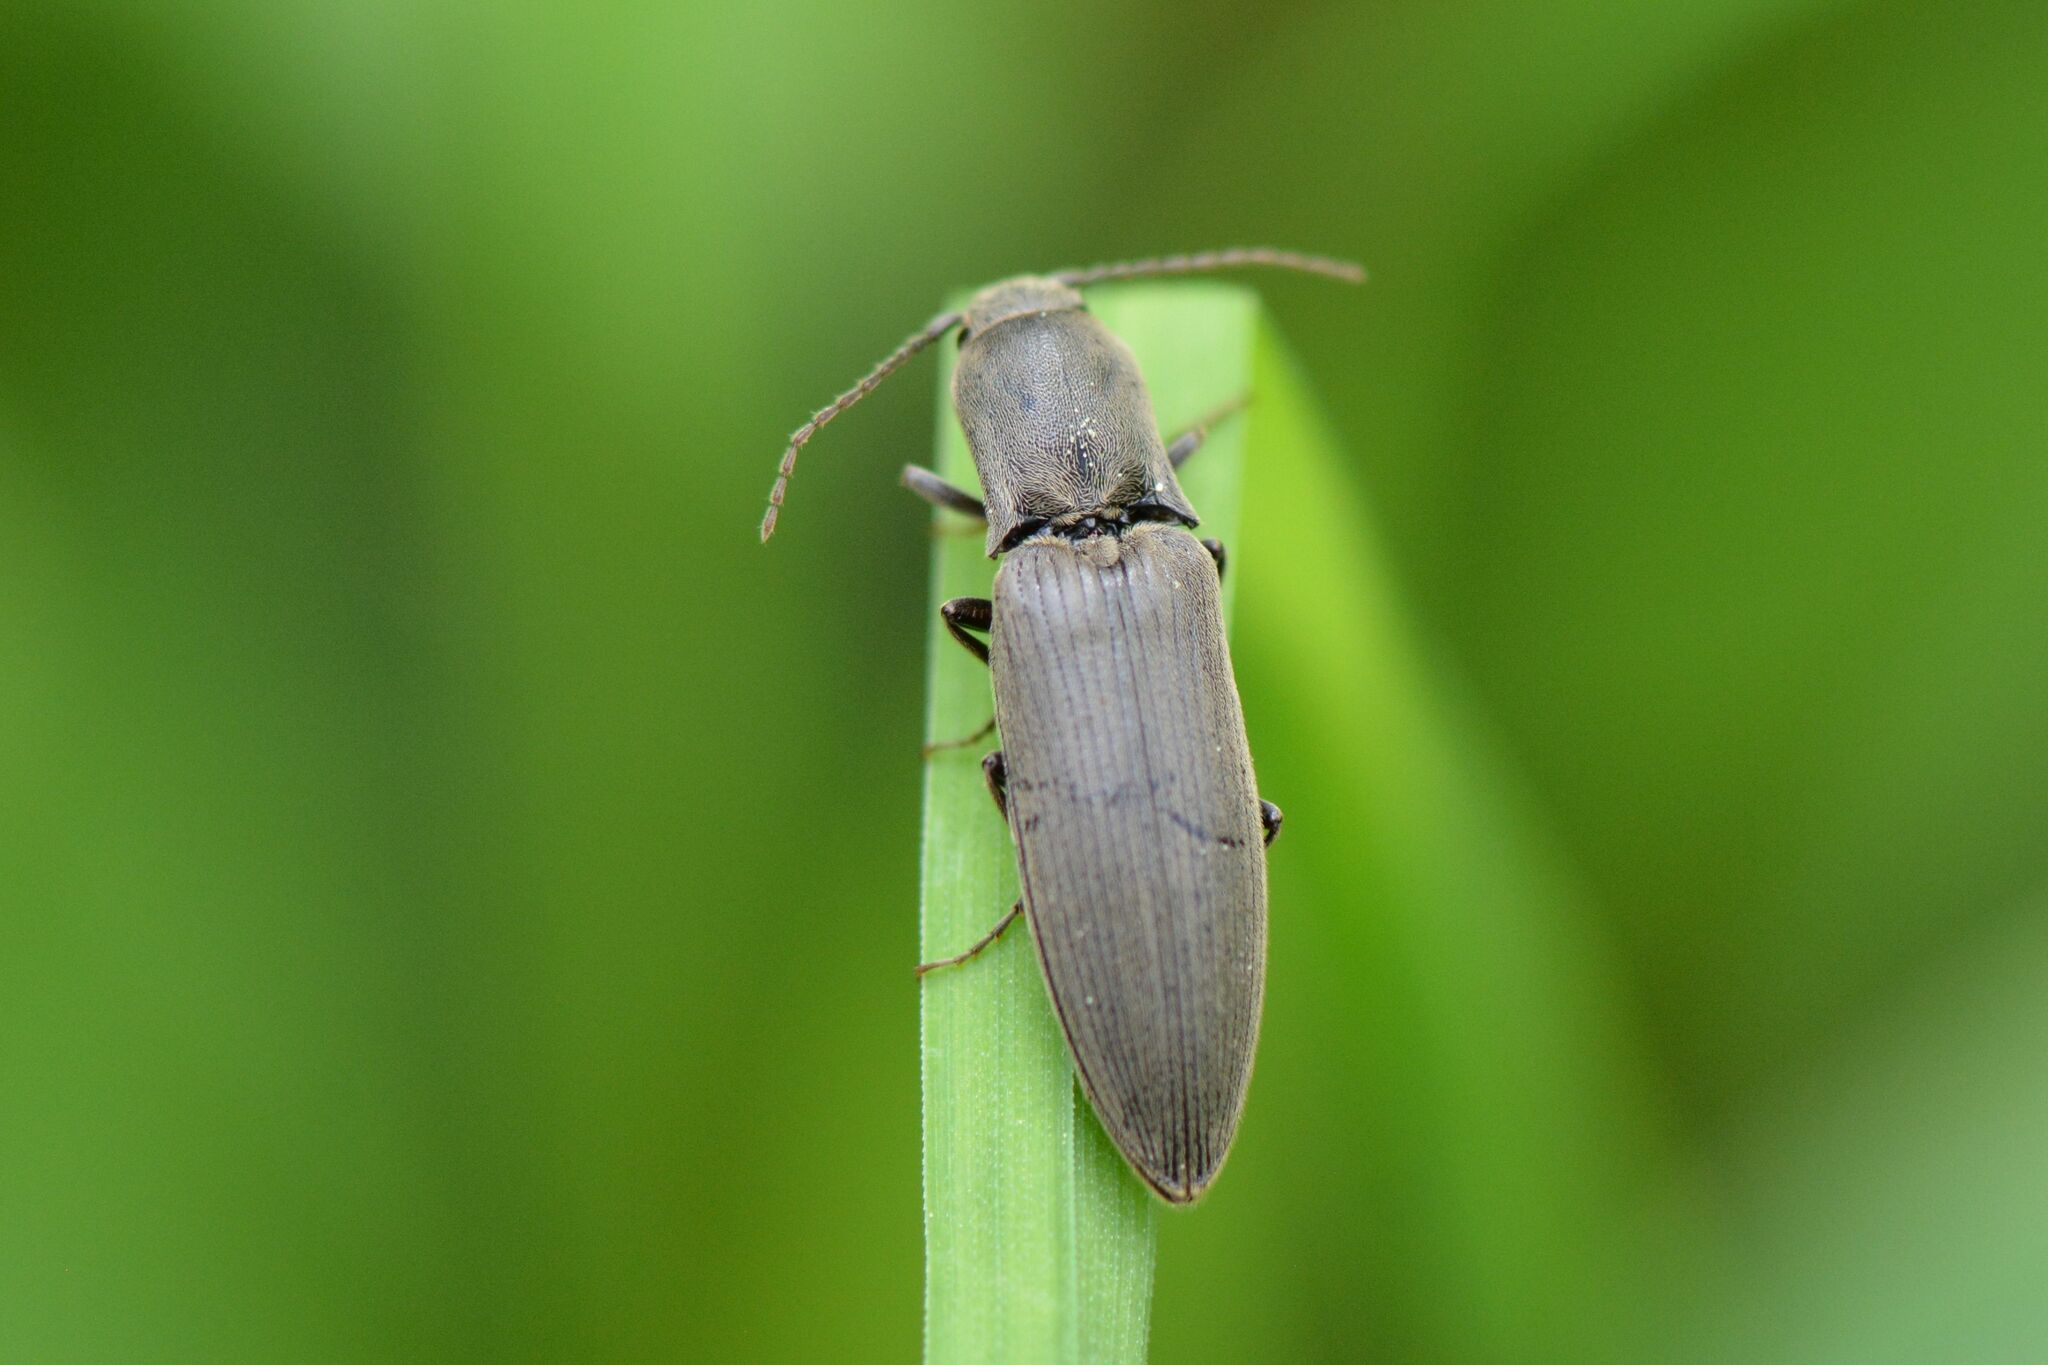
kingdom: Animalia
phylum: Arthropoda
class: Insecta
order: Coleoptera
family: Elateridae
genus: Agriotes
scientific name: Agriotes pilosellus
